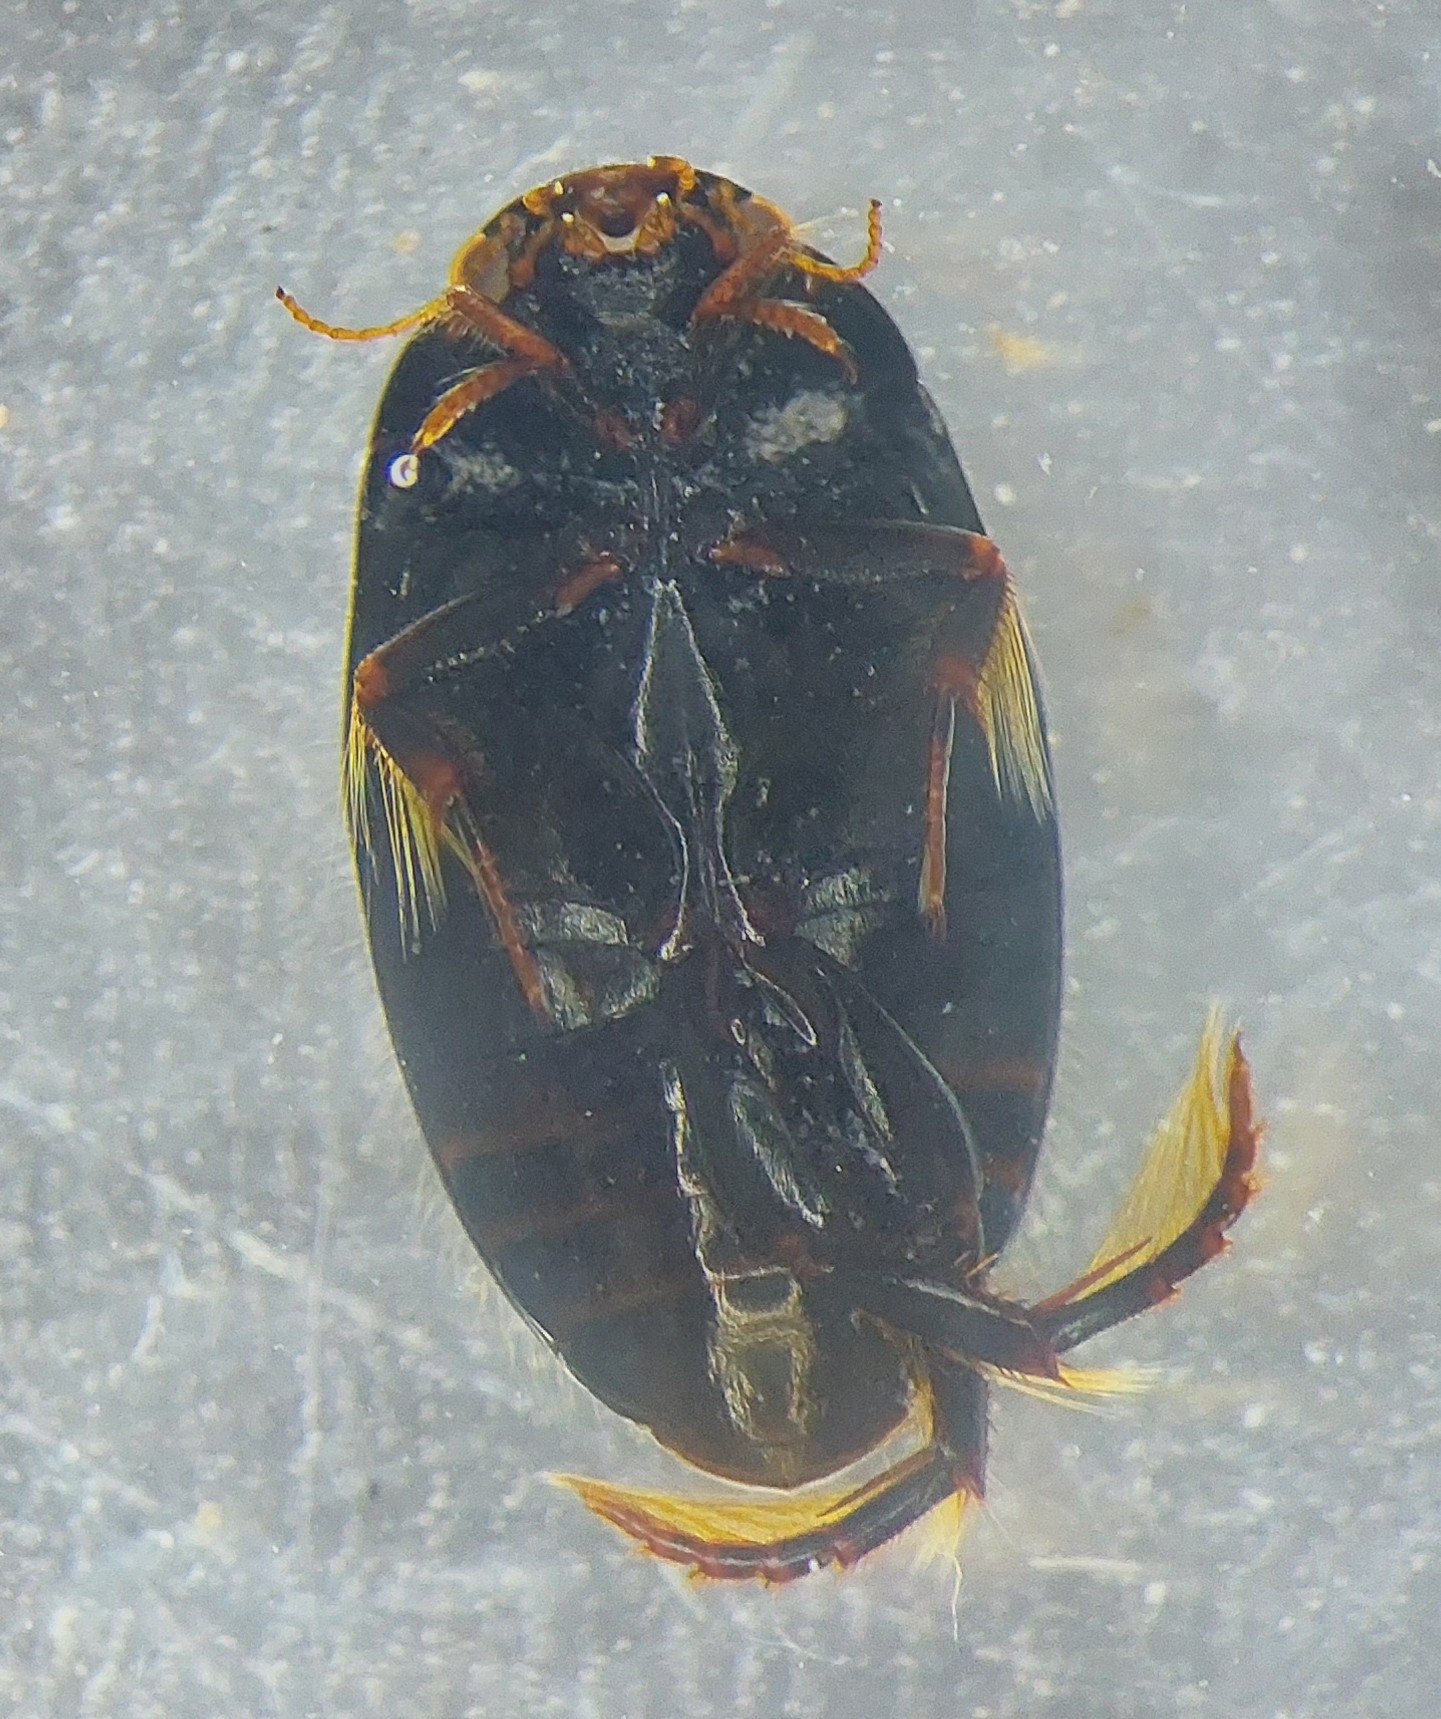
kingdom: Animalia
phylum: Arthropoda
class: Insecta
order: Coleoptera
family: Dytiscidae
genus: Agabus
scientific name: Agabus bipustulatus
